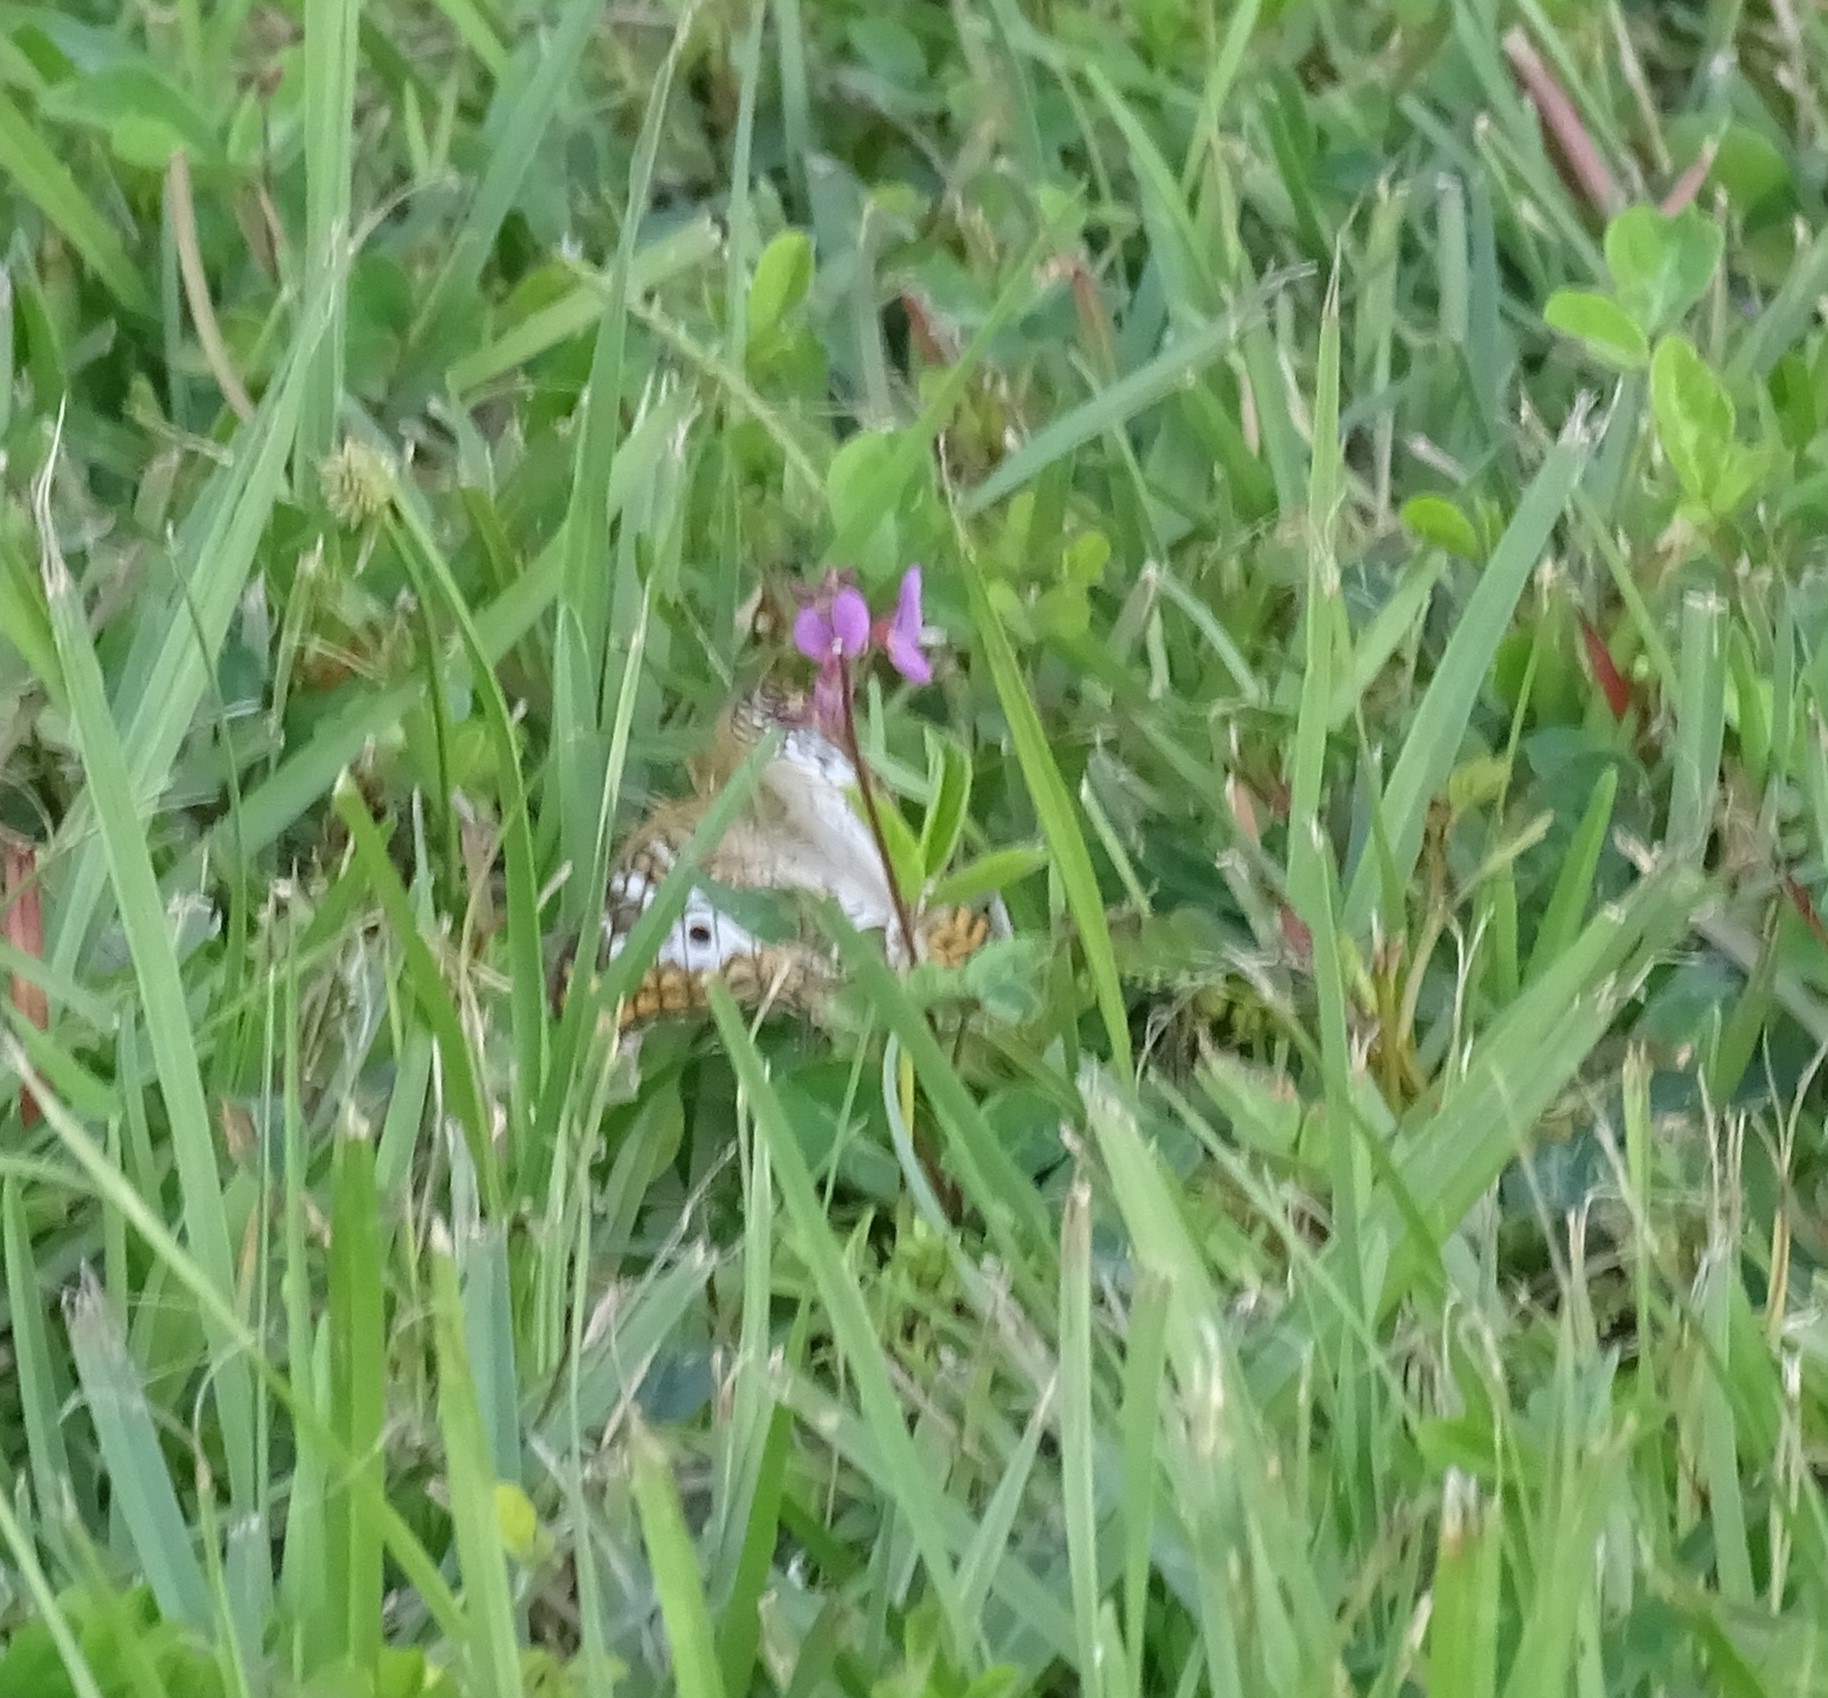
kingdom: Animalia
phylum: Arthropoda
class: Insecta
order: Lepidoptera
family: Nymphalidae
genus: Anartia
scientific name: Anartia jatrophae
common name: White peacock
